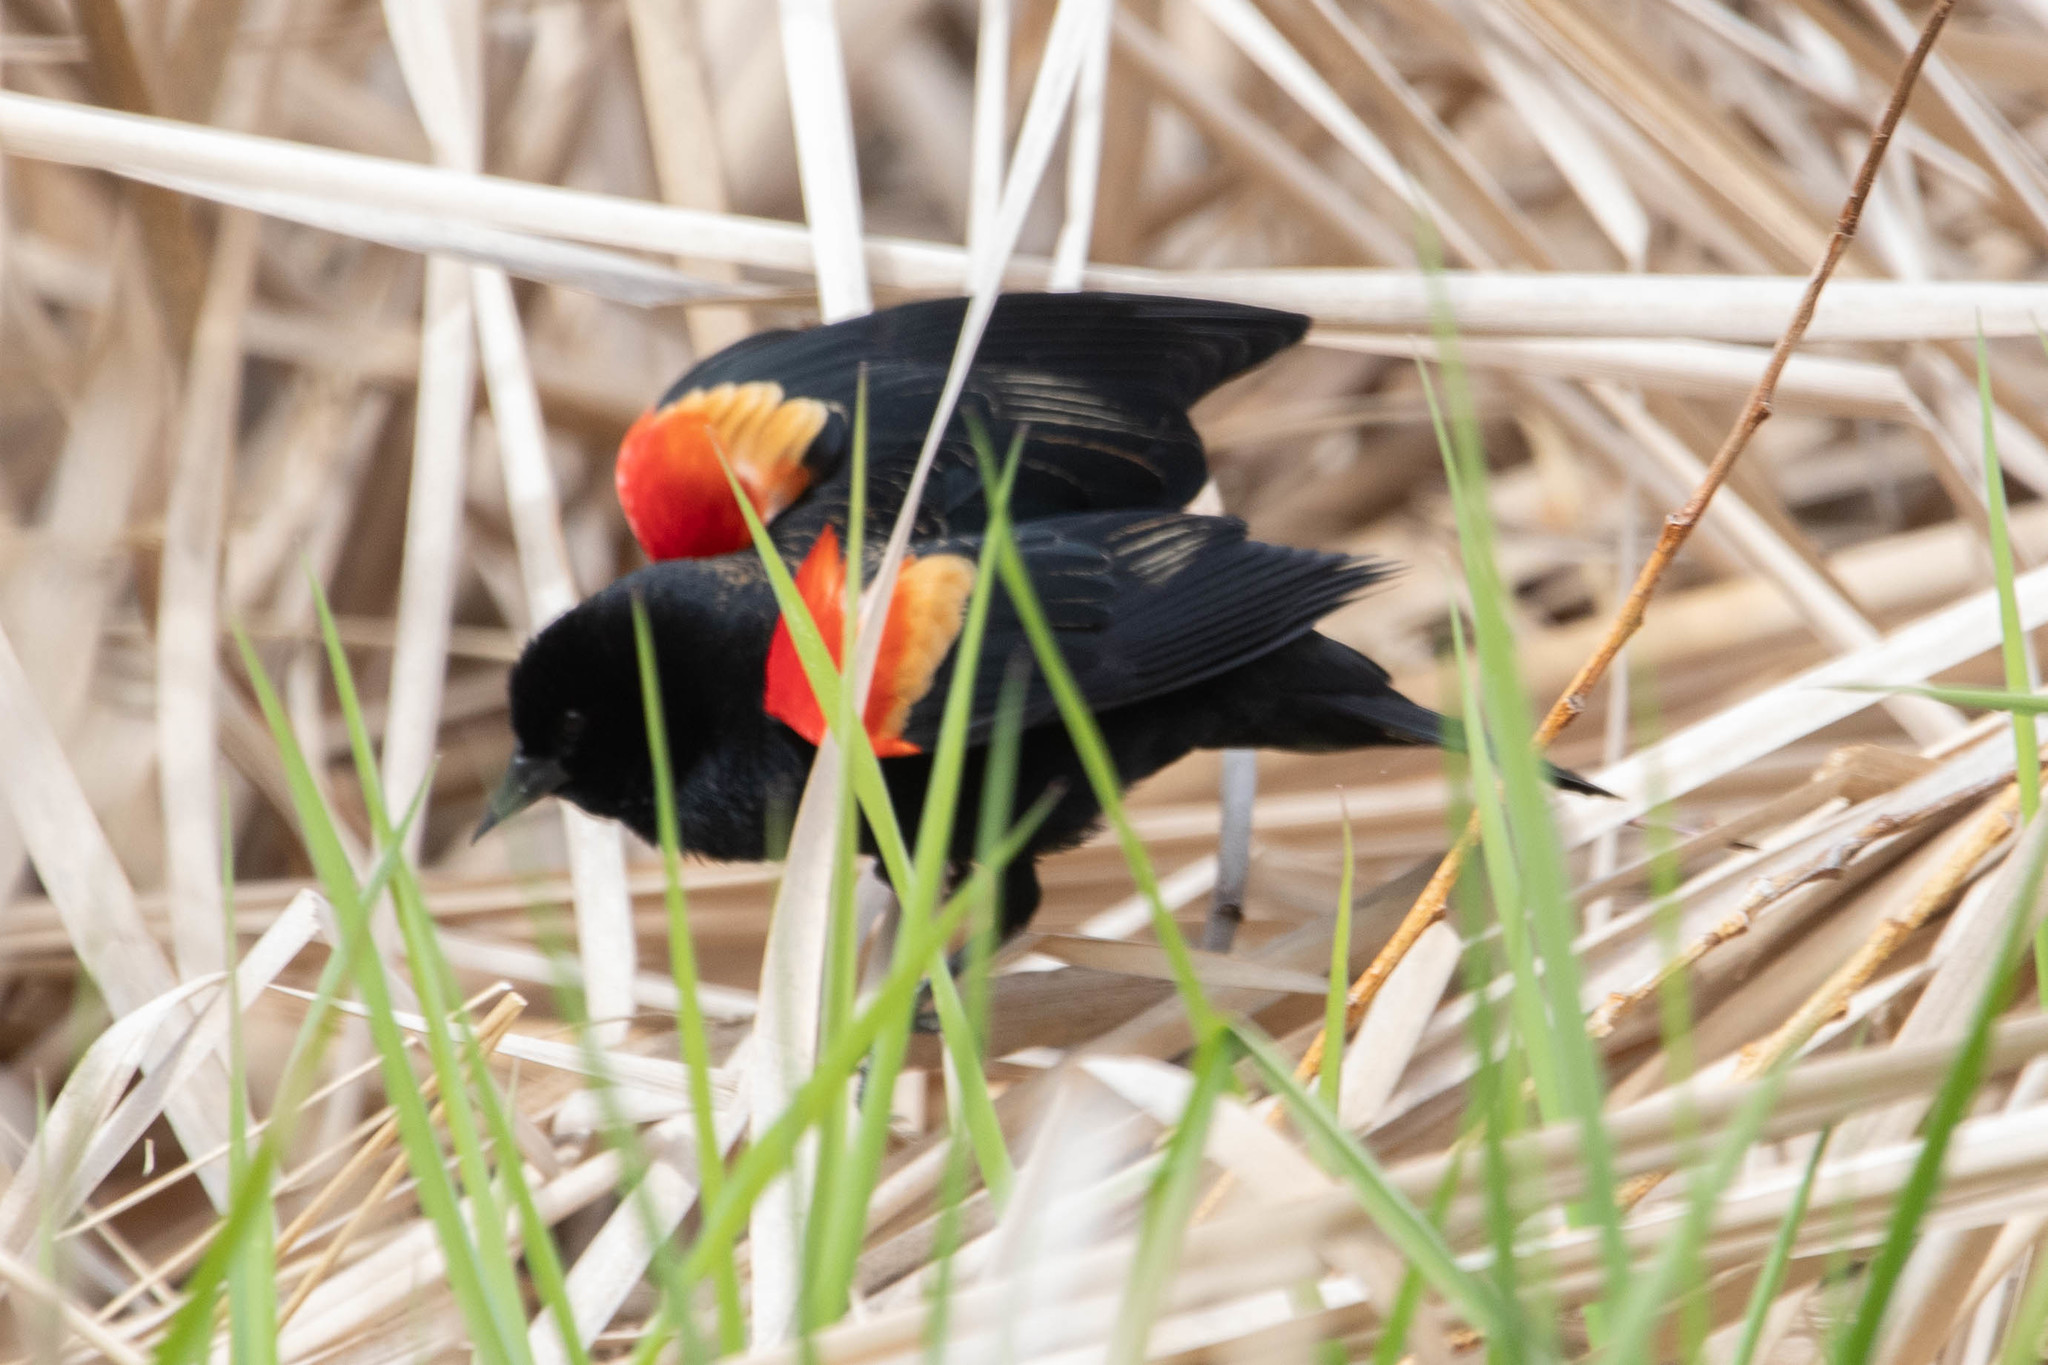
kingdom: Animalia
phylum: Chordata
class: Aves
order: Passeriformes
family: Icteridae
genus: Agelaius
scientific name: Agelaius phoeniceus
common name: Red-winged blackbird
